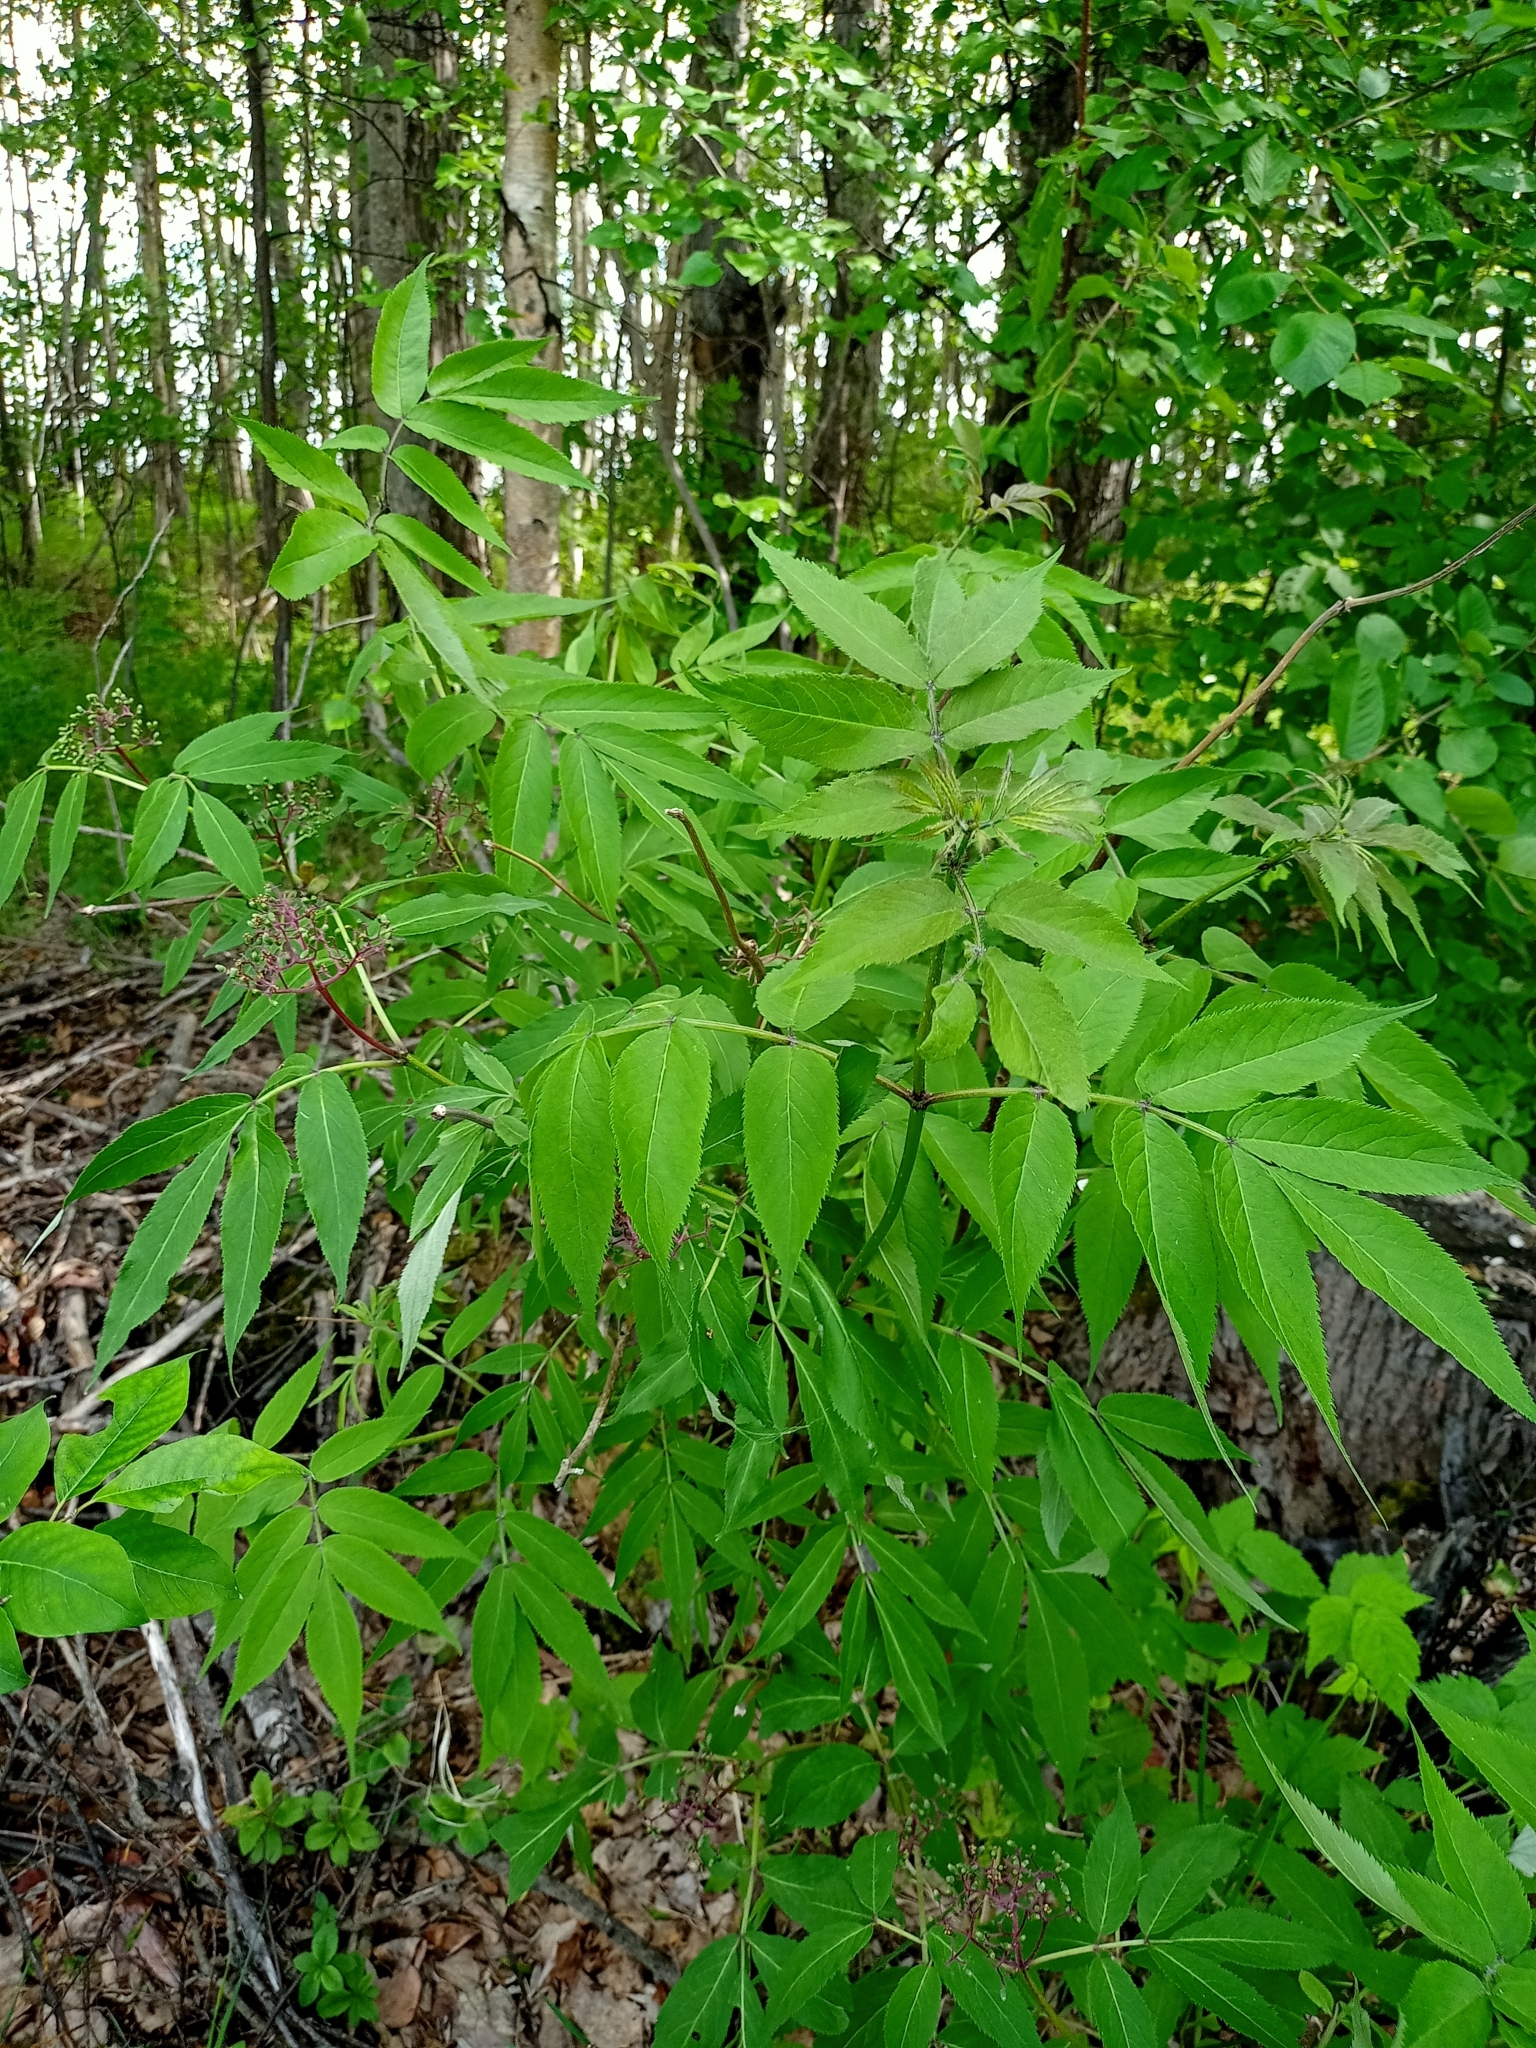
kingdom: Plantae
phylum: Tracheophyta
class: Magnoliopsida
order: Dipsacales
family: Viburnaceae
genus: Sambucus
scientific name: Sambucus sibirica
